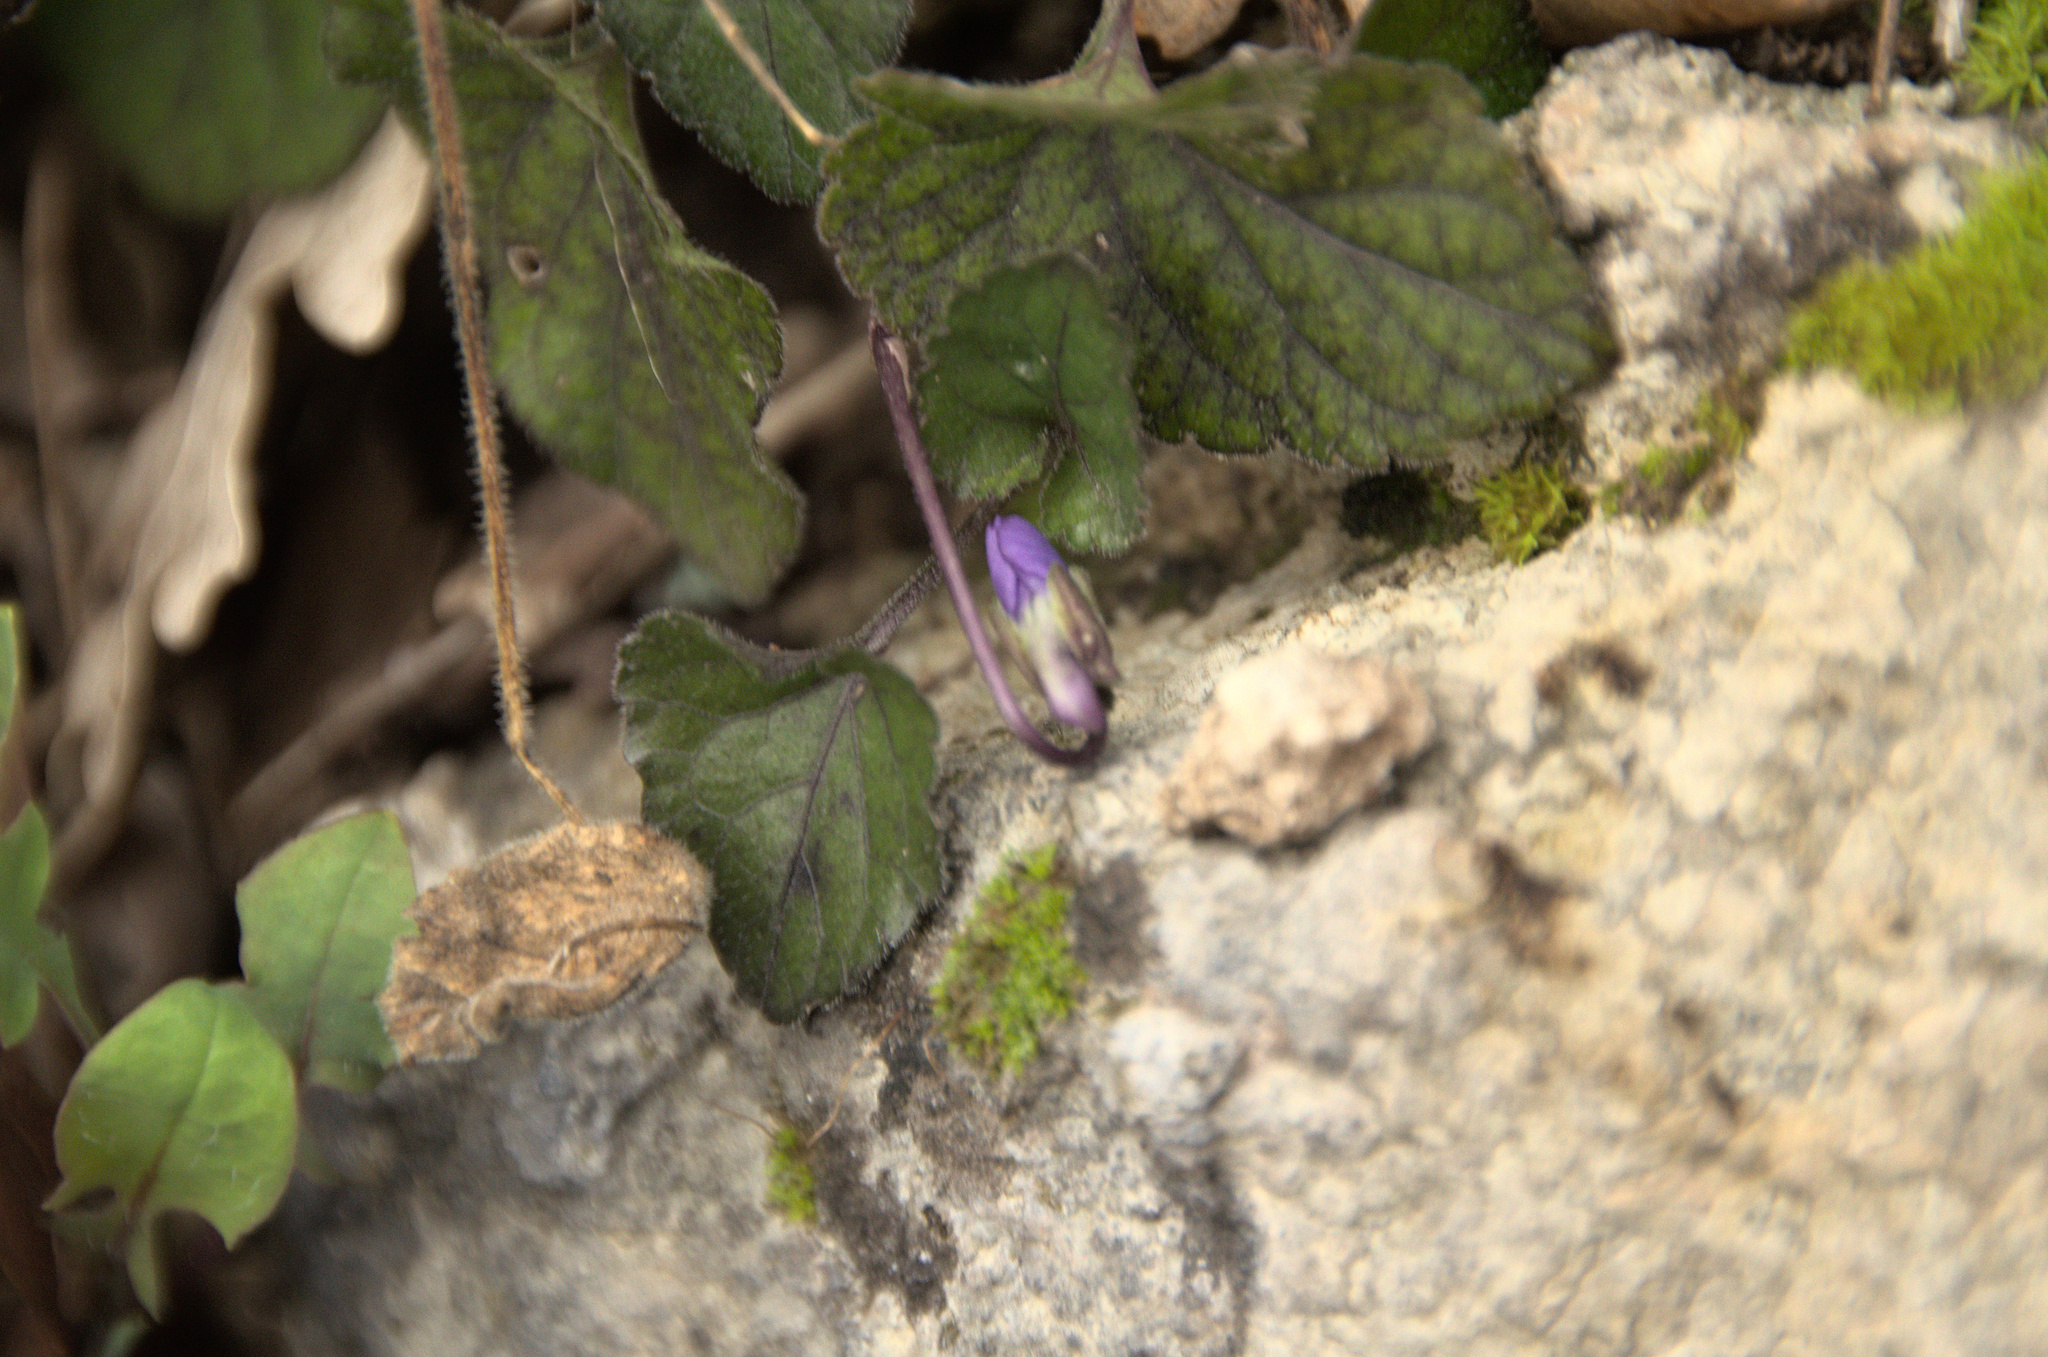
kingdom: Plantae
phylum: Tracheophyta
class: Magnoliopsida
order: Malpighiales
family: Violaceae
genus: Viola
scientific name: Viola odorata
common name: Sweet violet
